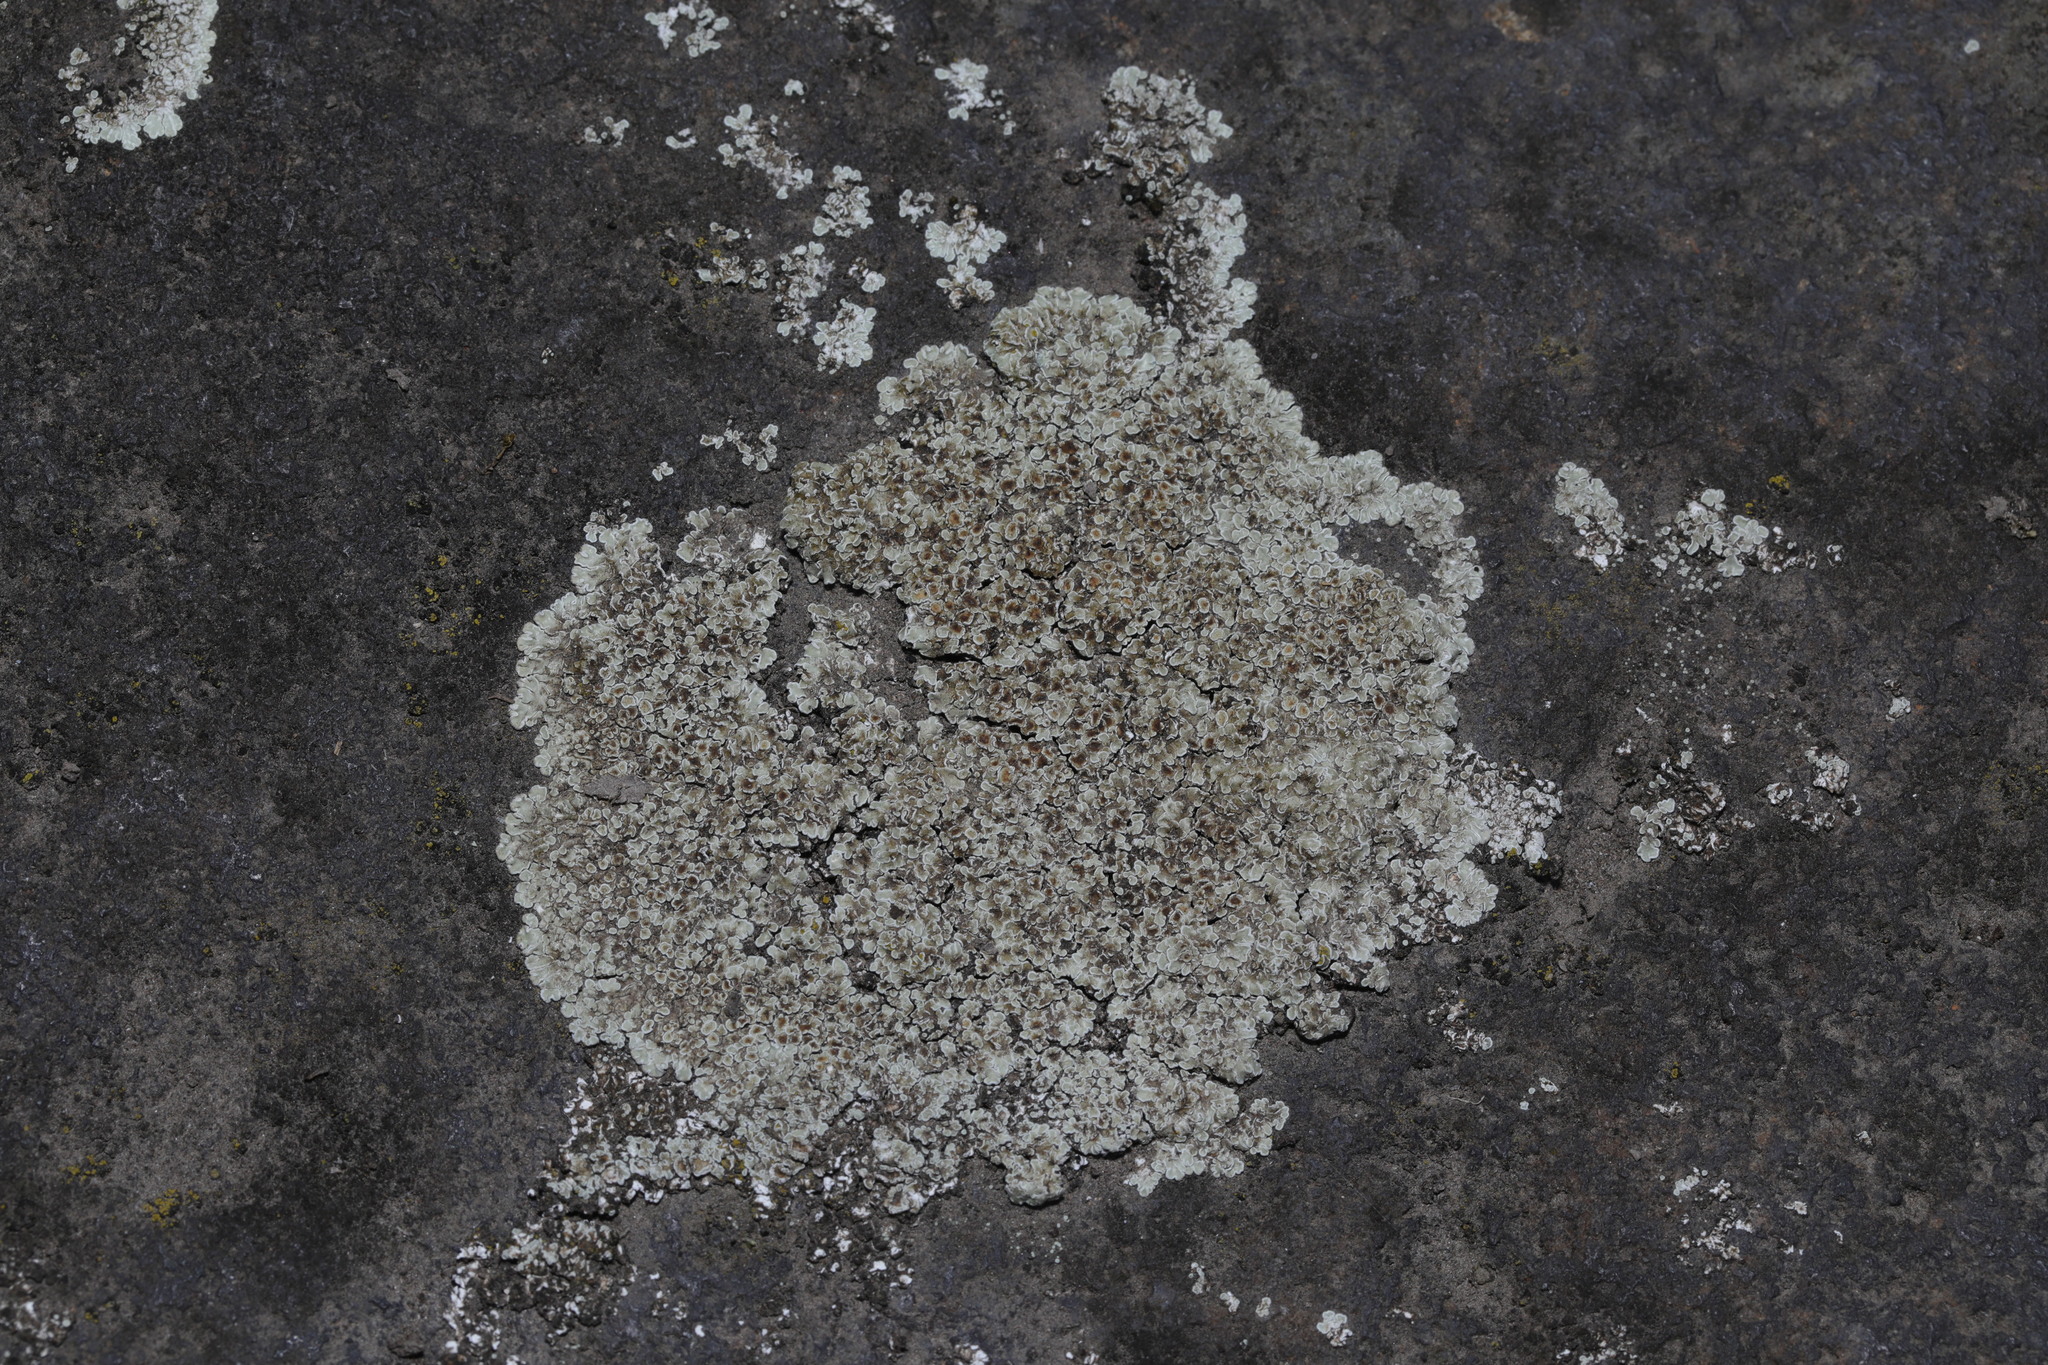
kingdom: Fungi
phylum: Ascomycota
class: Lecanoromycetes
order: Lecanorales
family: Lecanoraceae
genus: Protoparmeliopsis
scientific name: Protoparmeliopsis muralis
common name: Stonewall rim lichen
